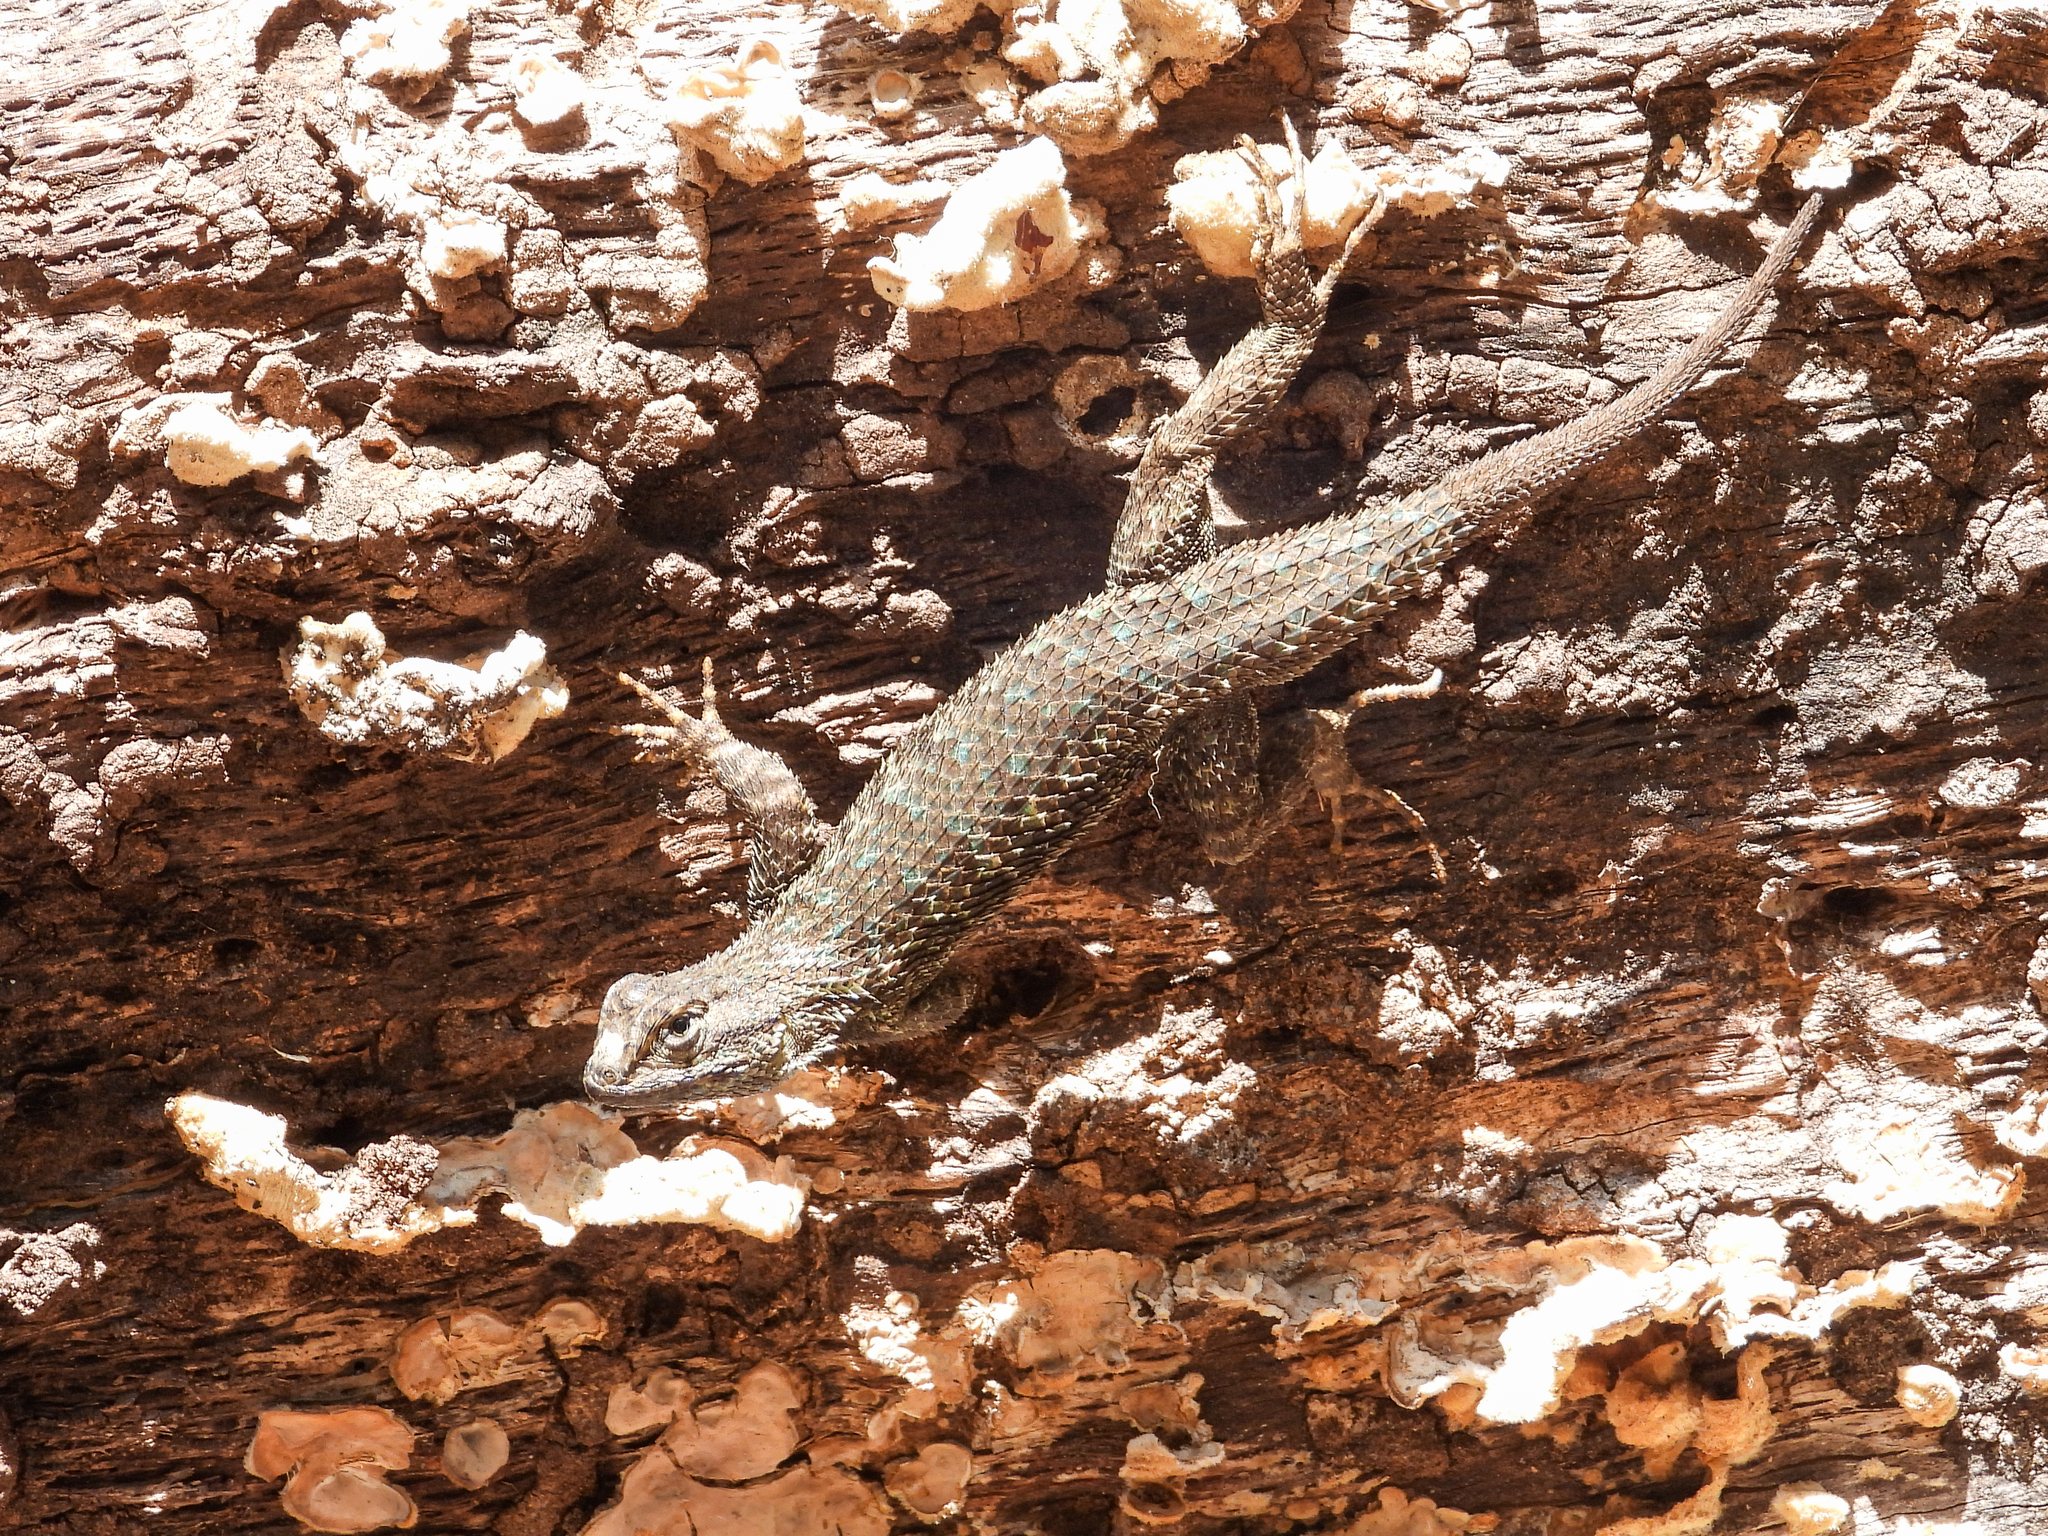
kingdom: Animalia
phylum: Chordata
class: Squamata
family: Phrynosomatidae
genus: Sceloporus
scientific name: Sceloporus occidentalis
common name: Western fence lizard
